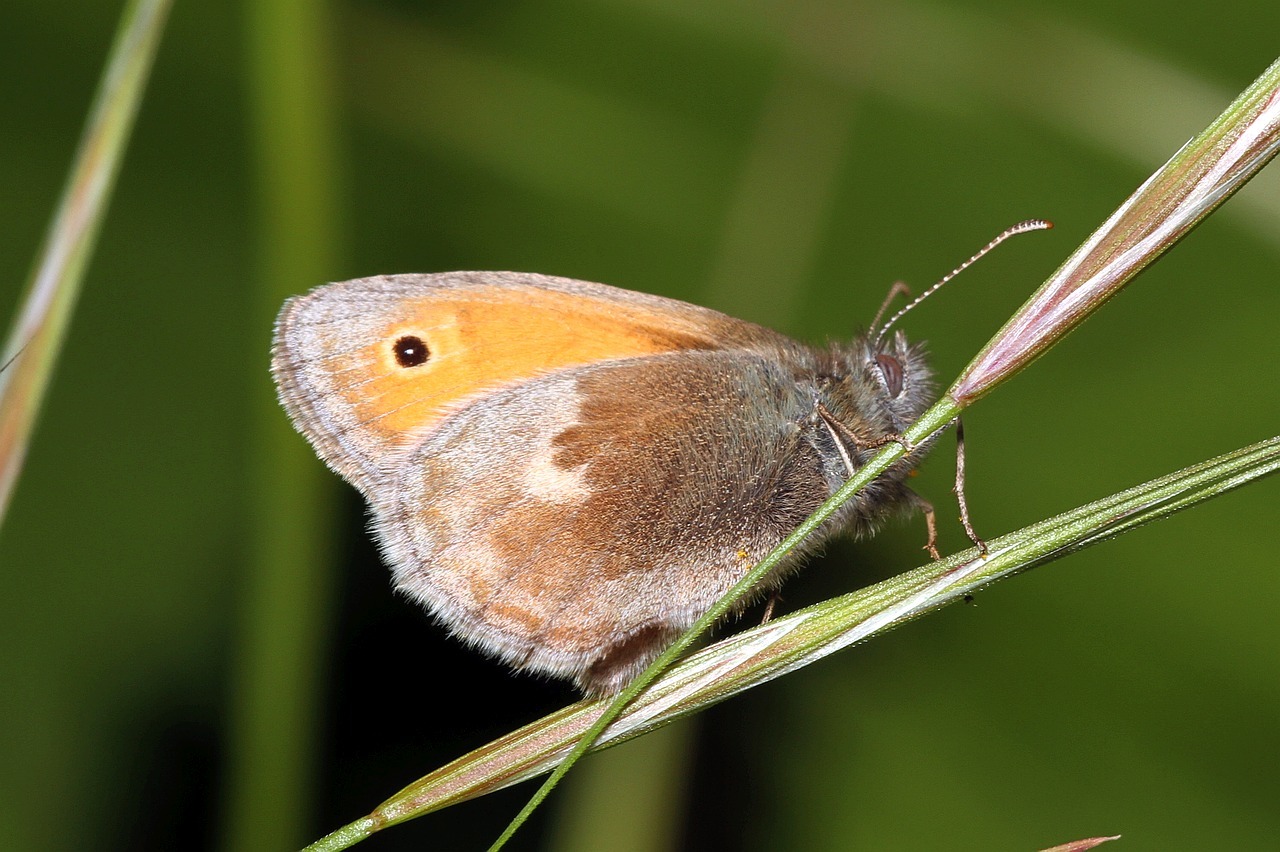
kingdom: Animalia
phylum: Arthropoda
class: Insecta
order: Lepidoptera
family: Nymphalidae
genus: Coenonympha
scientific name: Coenonympha pamphilus
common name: Small heath
